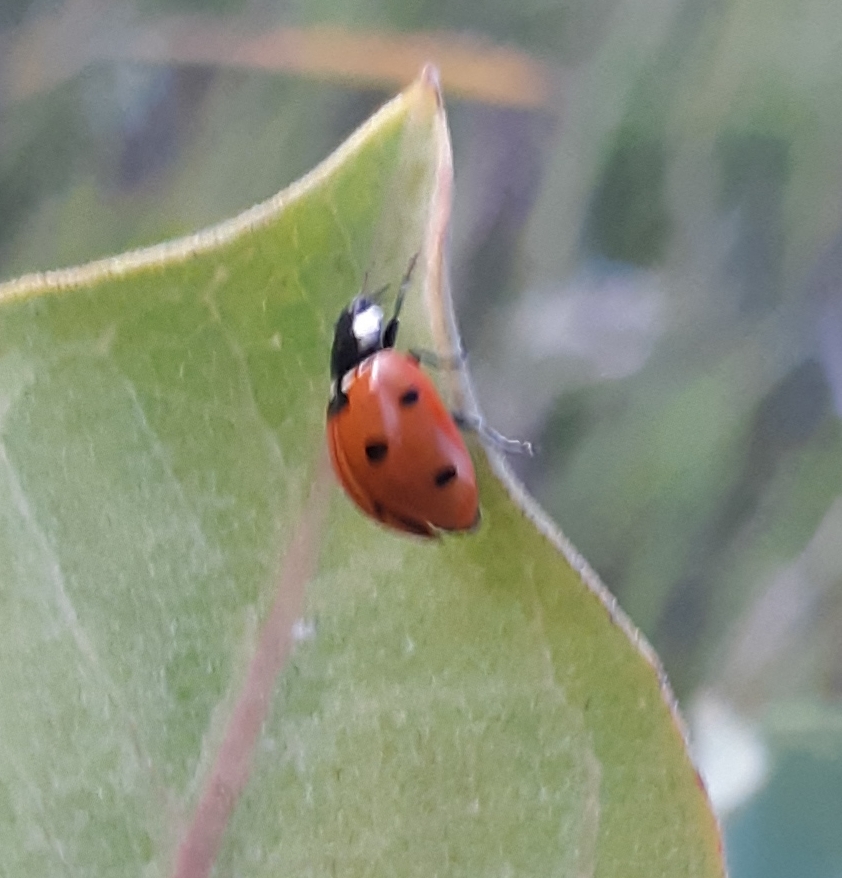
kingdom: Animalia
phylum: Arthropoda
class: Insecta
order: Coleoptera
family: Coccinellidae
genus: Coccinella
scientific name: Coccinella septempunctata
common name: Sevenspotted lady beetle
